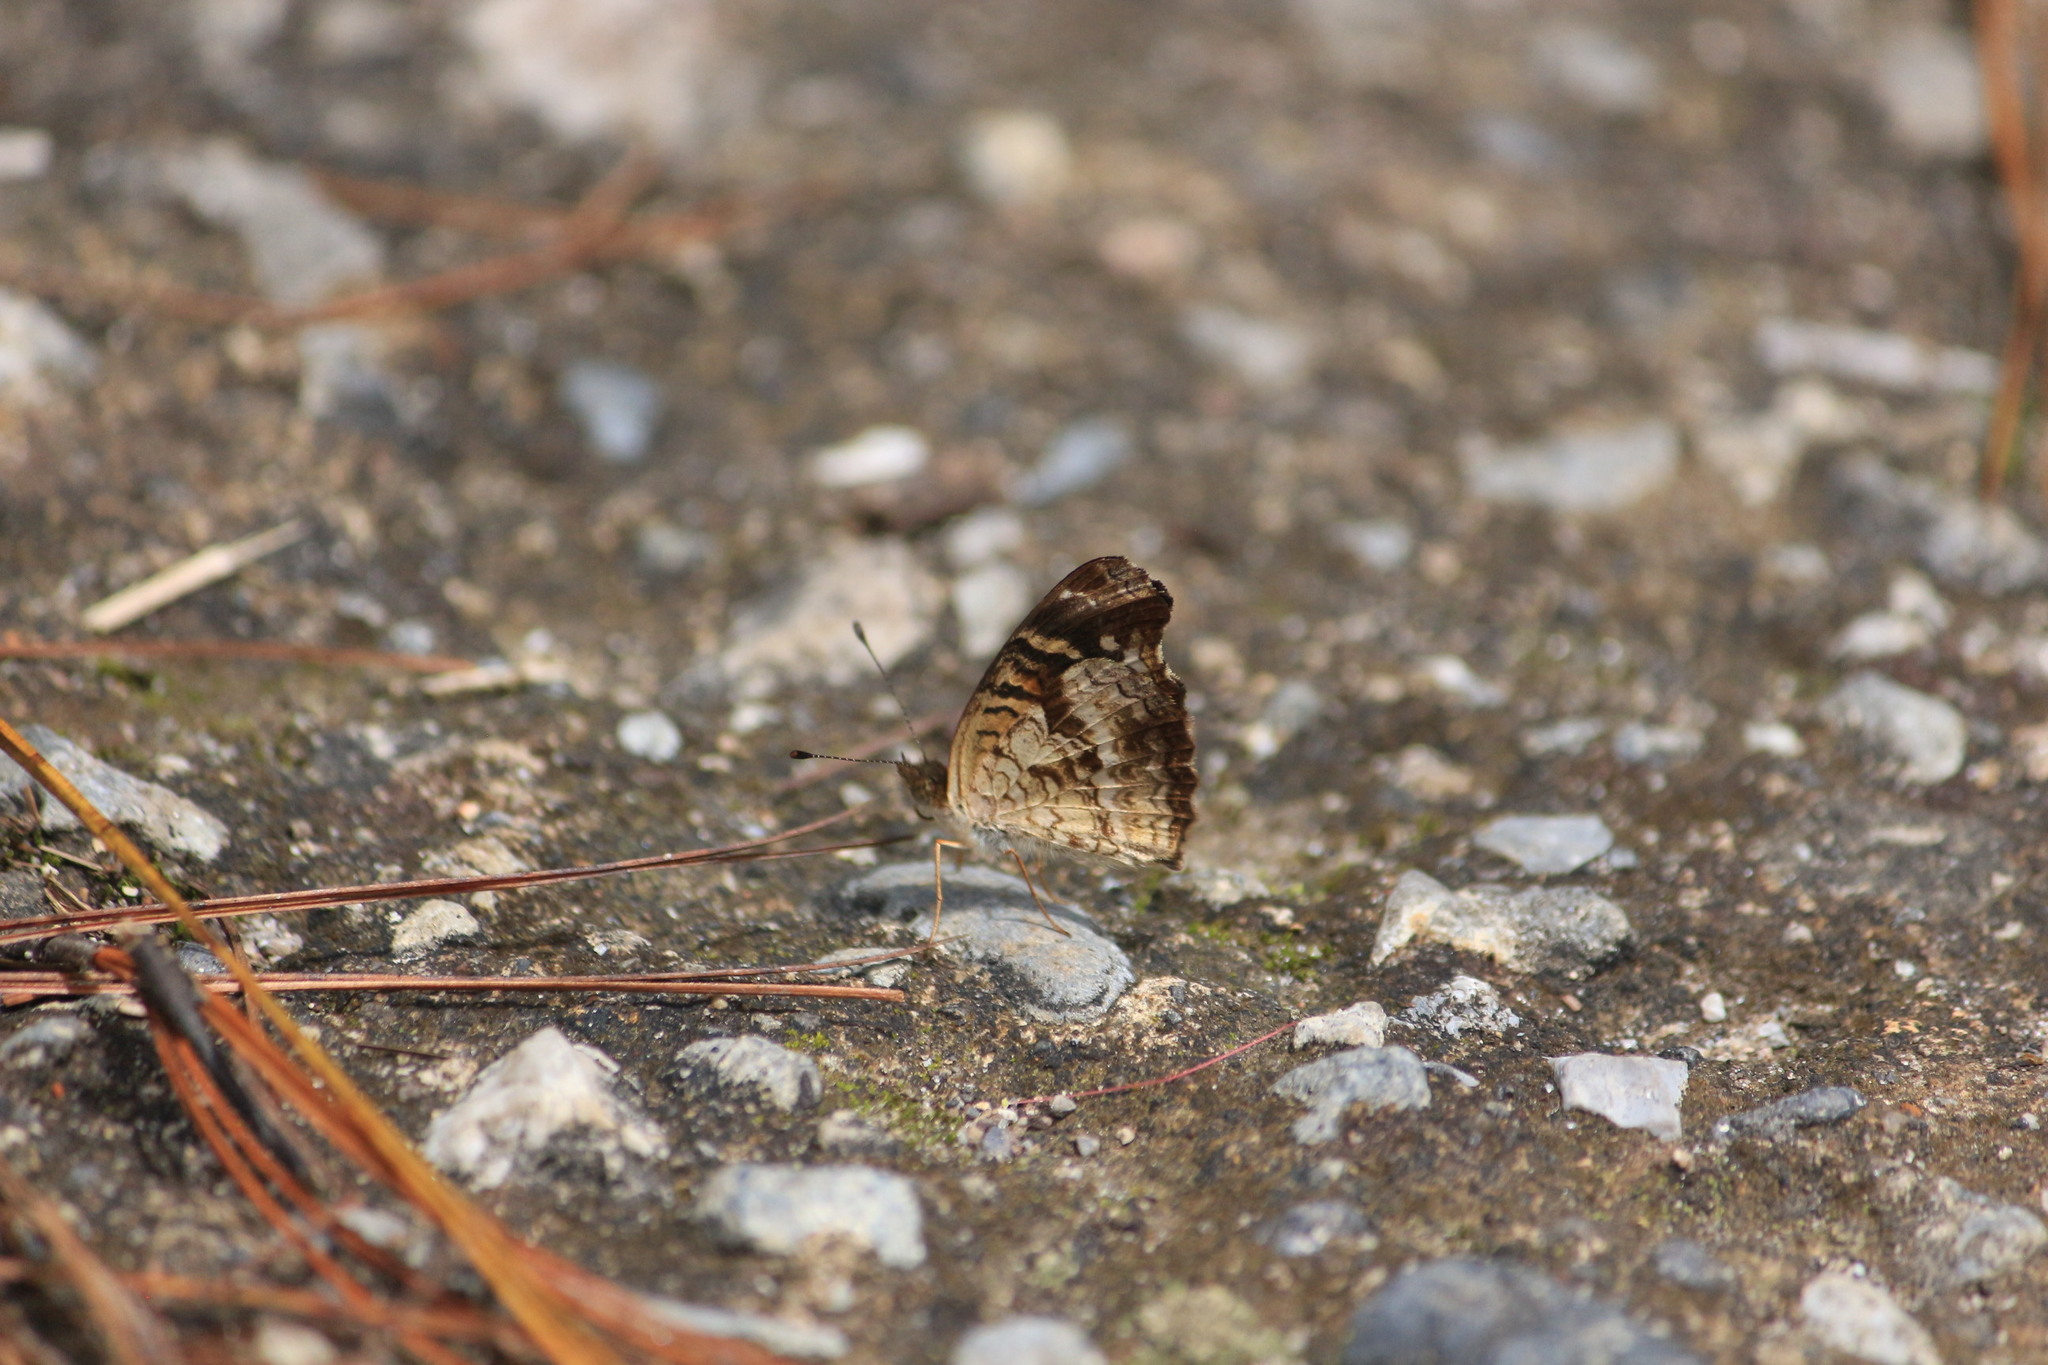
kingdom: Animalia
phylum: Arthropoda
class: Insecta
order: Lepidoptera
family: Nymphalidae
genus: Anthanassa
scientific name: Anthanassa atronia
